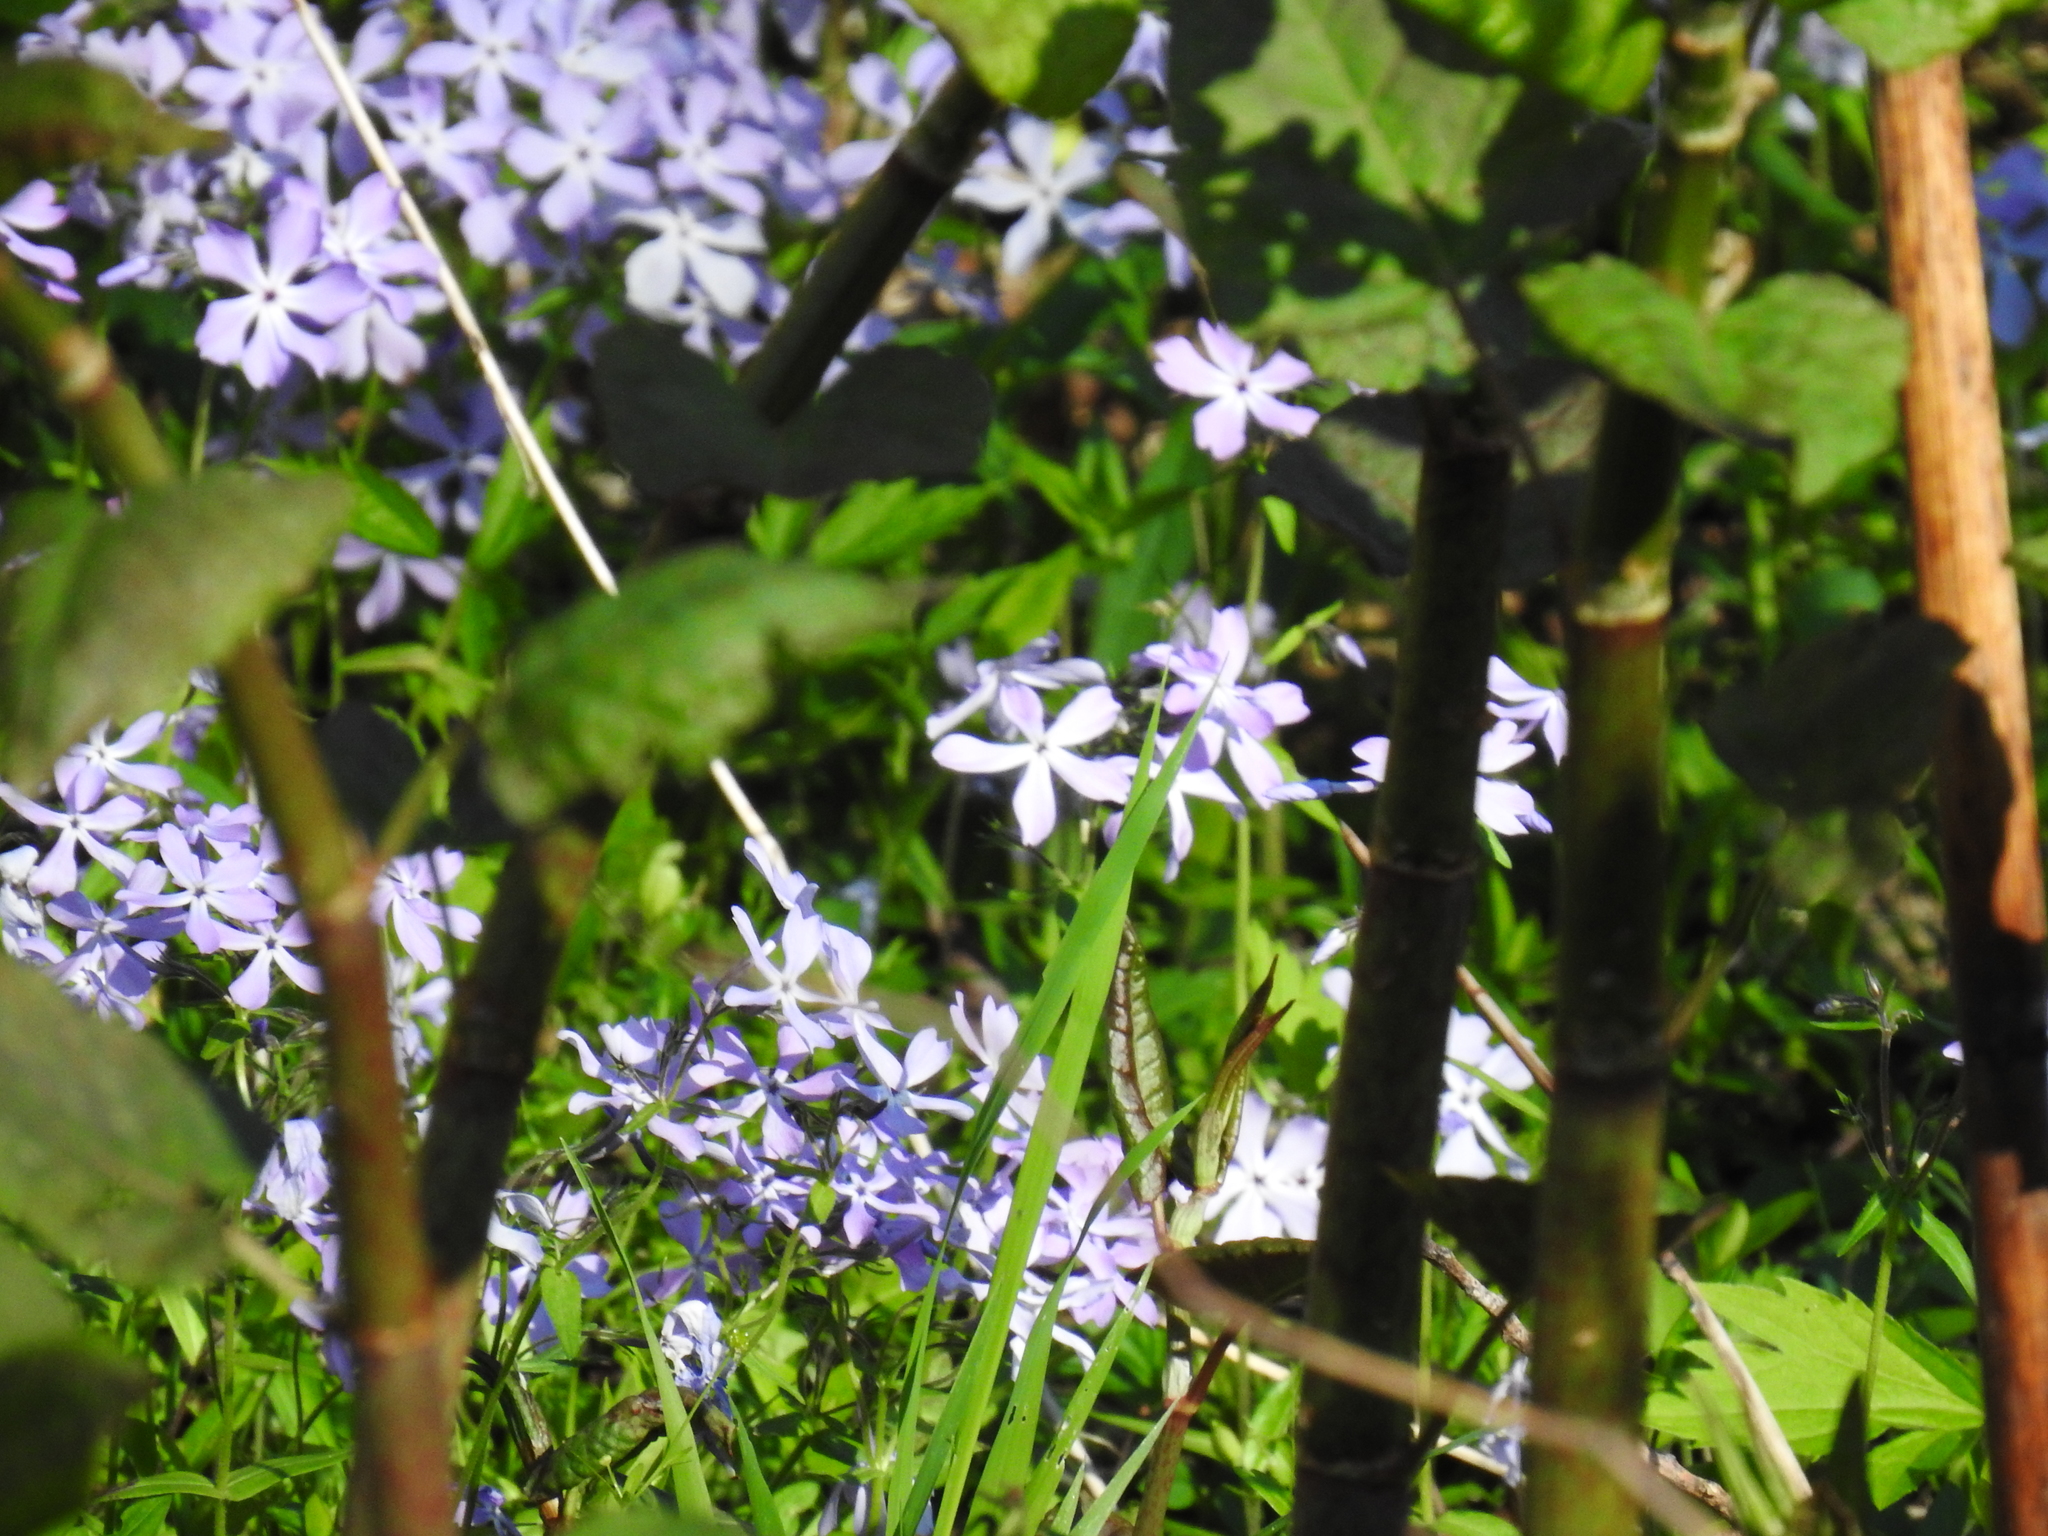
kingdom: Plantae
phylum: Tracheophyta
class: Magnoliopsida
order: Ericales
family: Polemoniaceae
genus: Phlox
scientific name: Phlox divaricata
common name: Blue phlox
